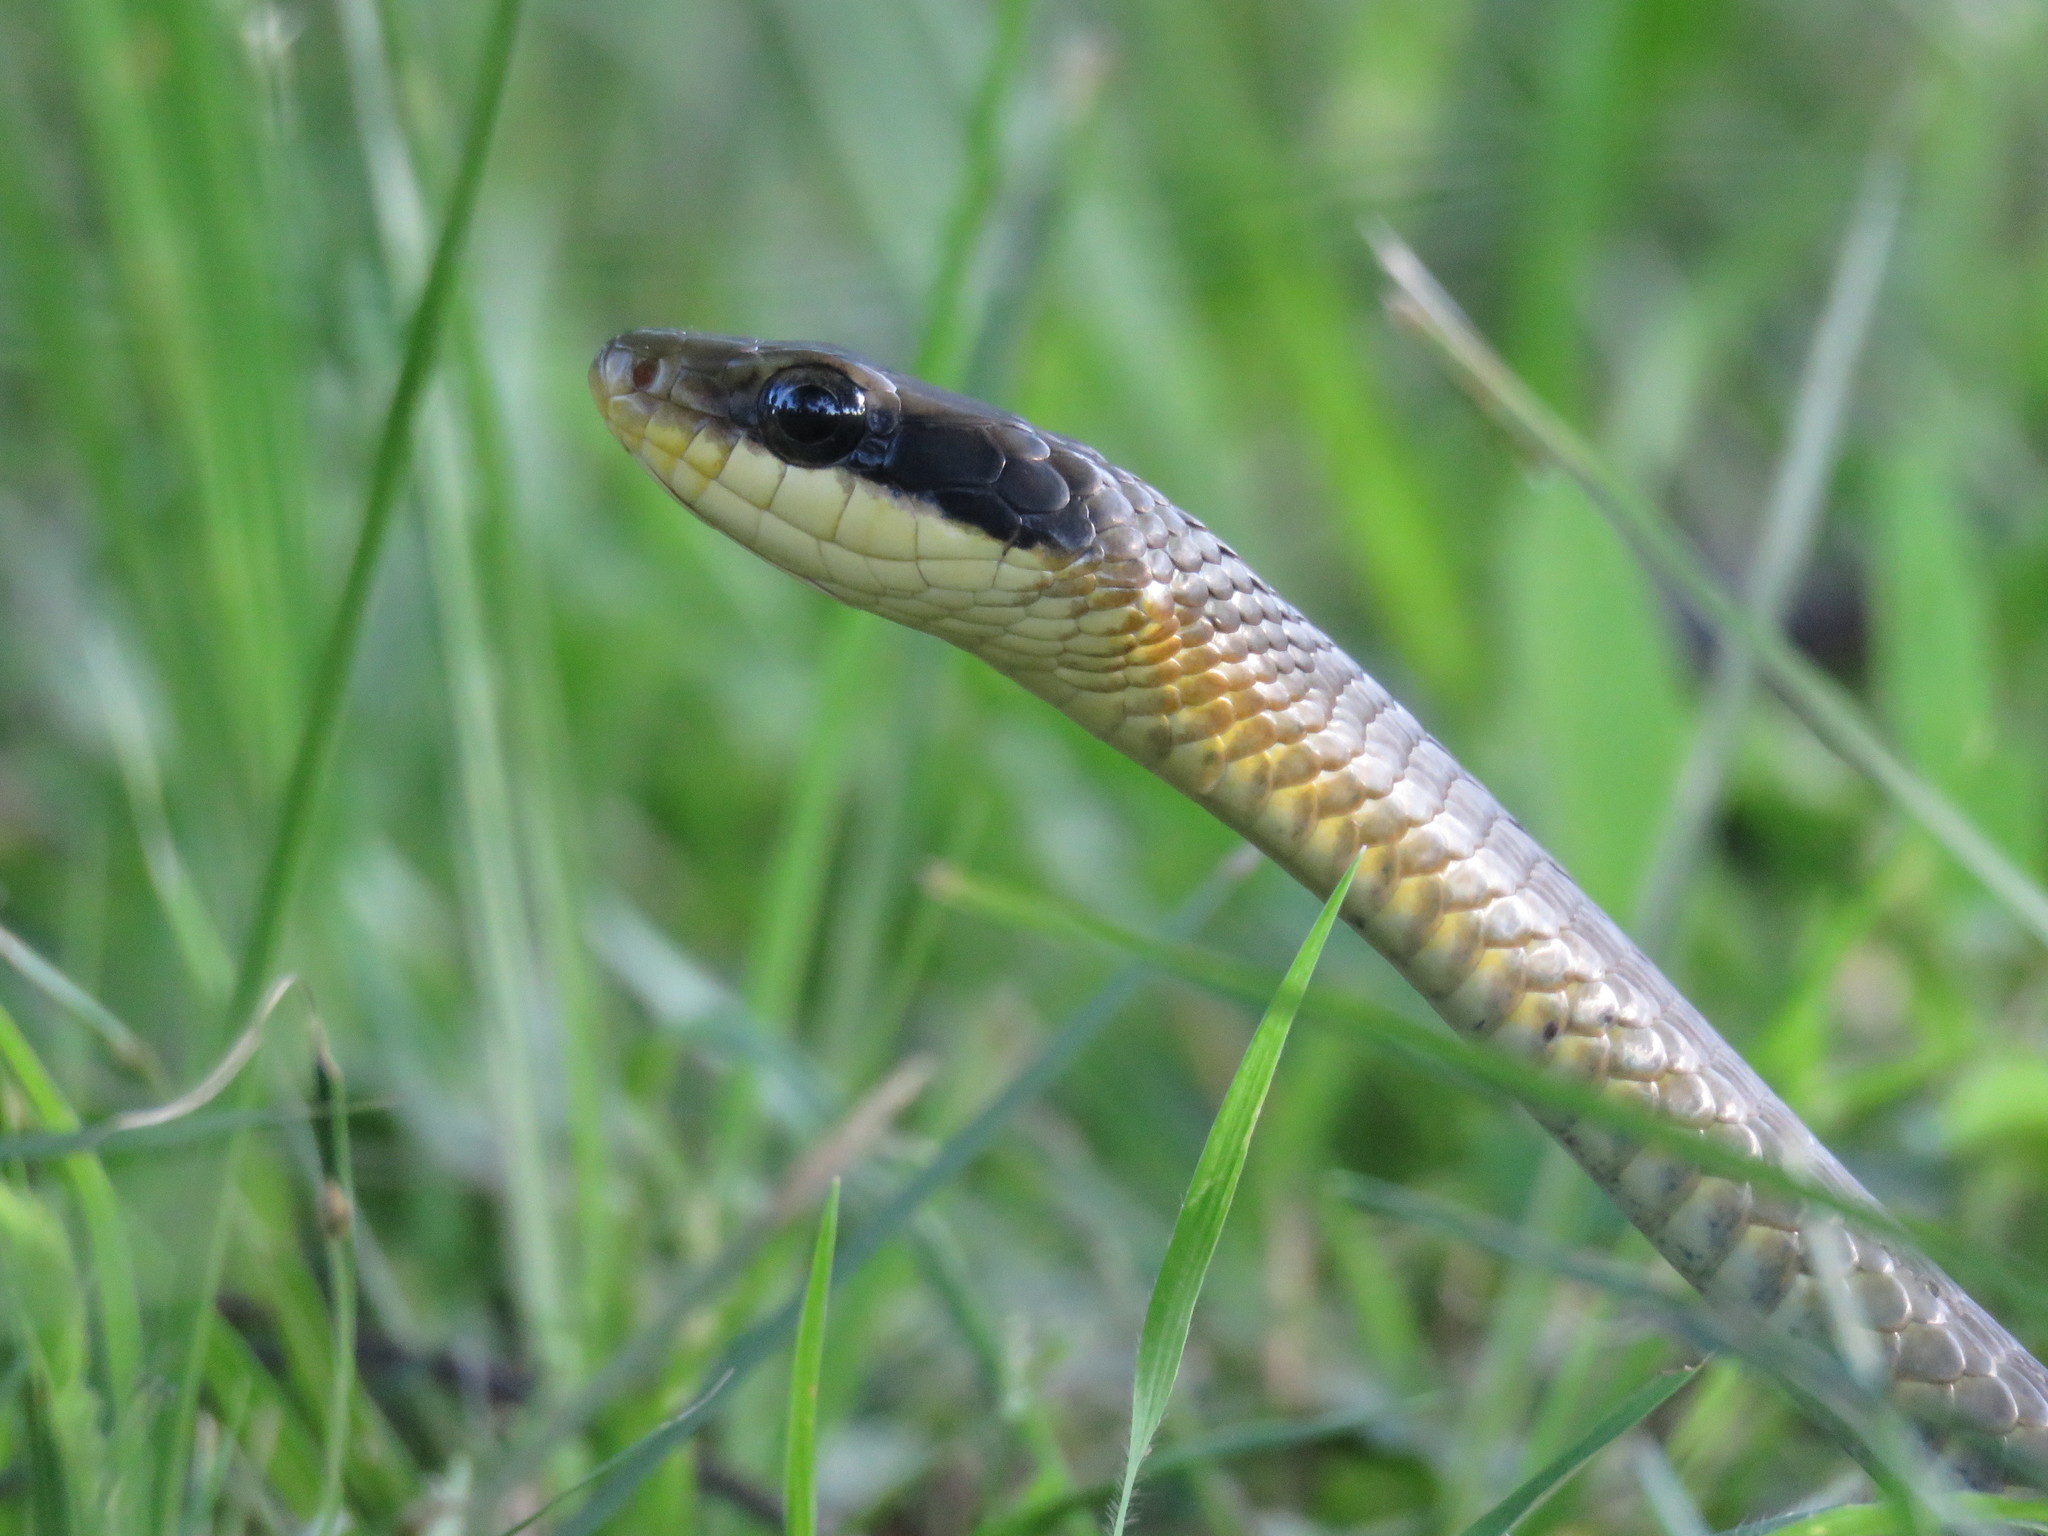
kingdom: Animalia
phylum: Chordata
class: Squamata
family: Colubridae
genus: Chironius
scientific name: Chironius quadricarinatus
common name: Central sipo
